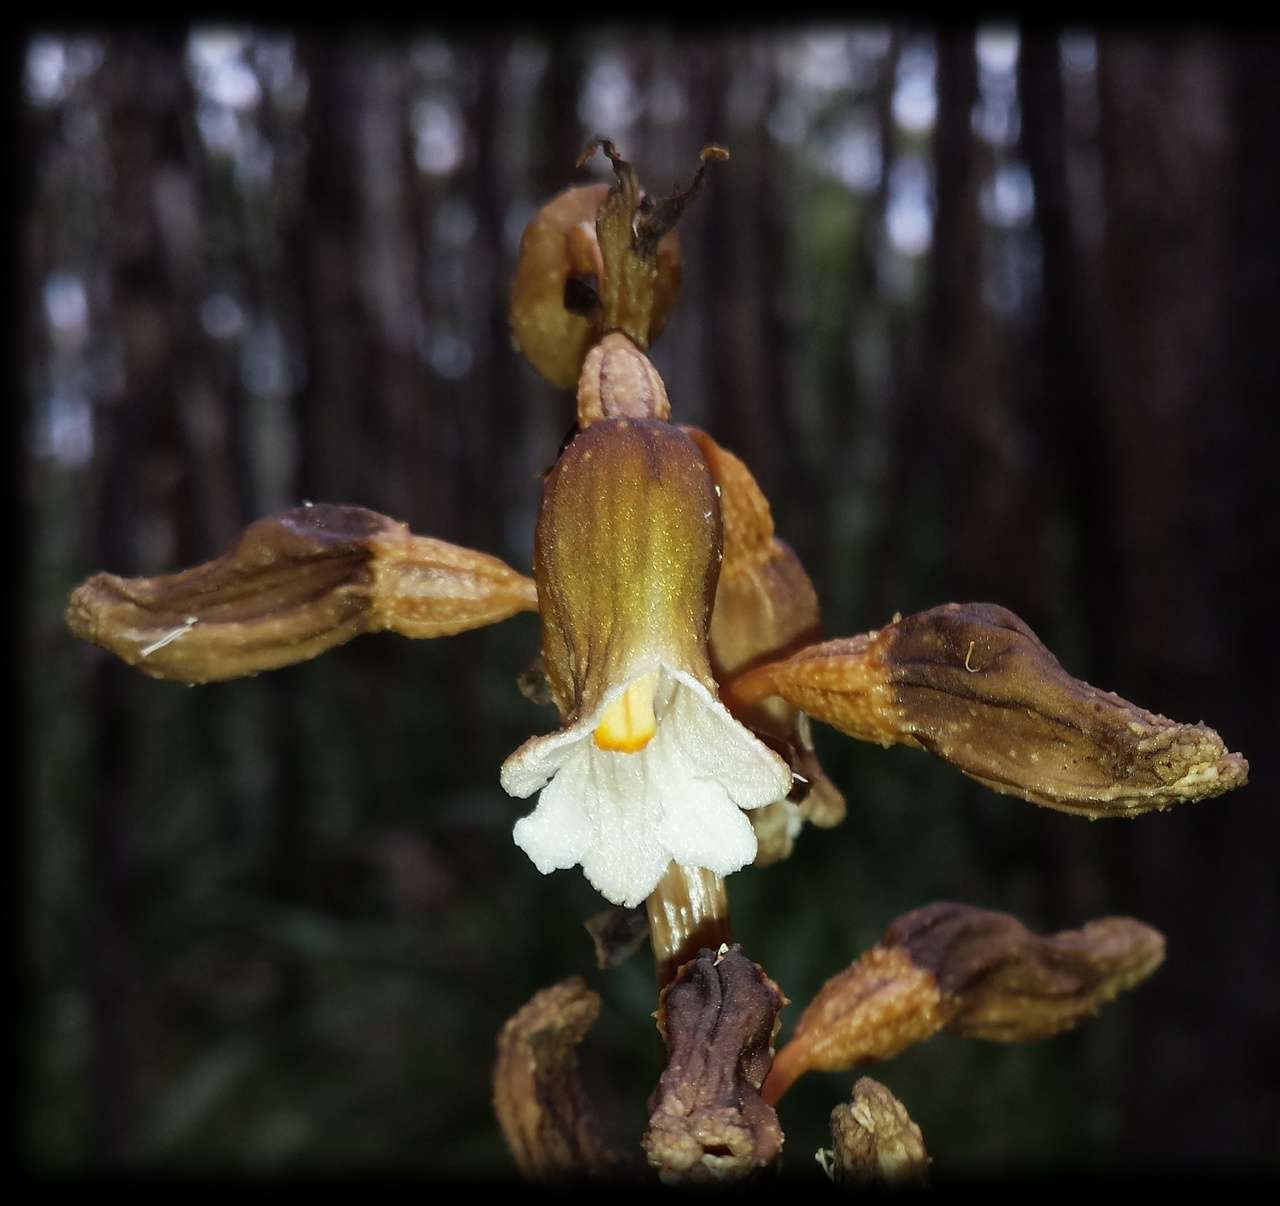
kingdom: Plantae
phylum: Tracheophyta
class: Liliopsida
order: Asparagales
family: Orchidaceae
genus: Gastrodia
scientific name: Gastrodia procera
